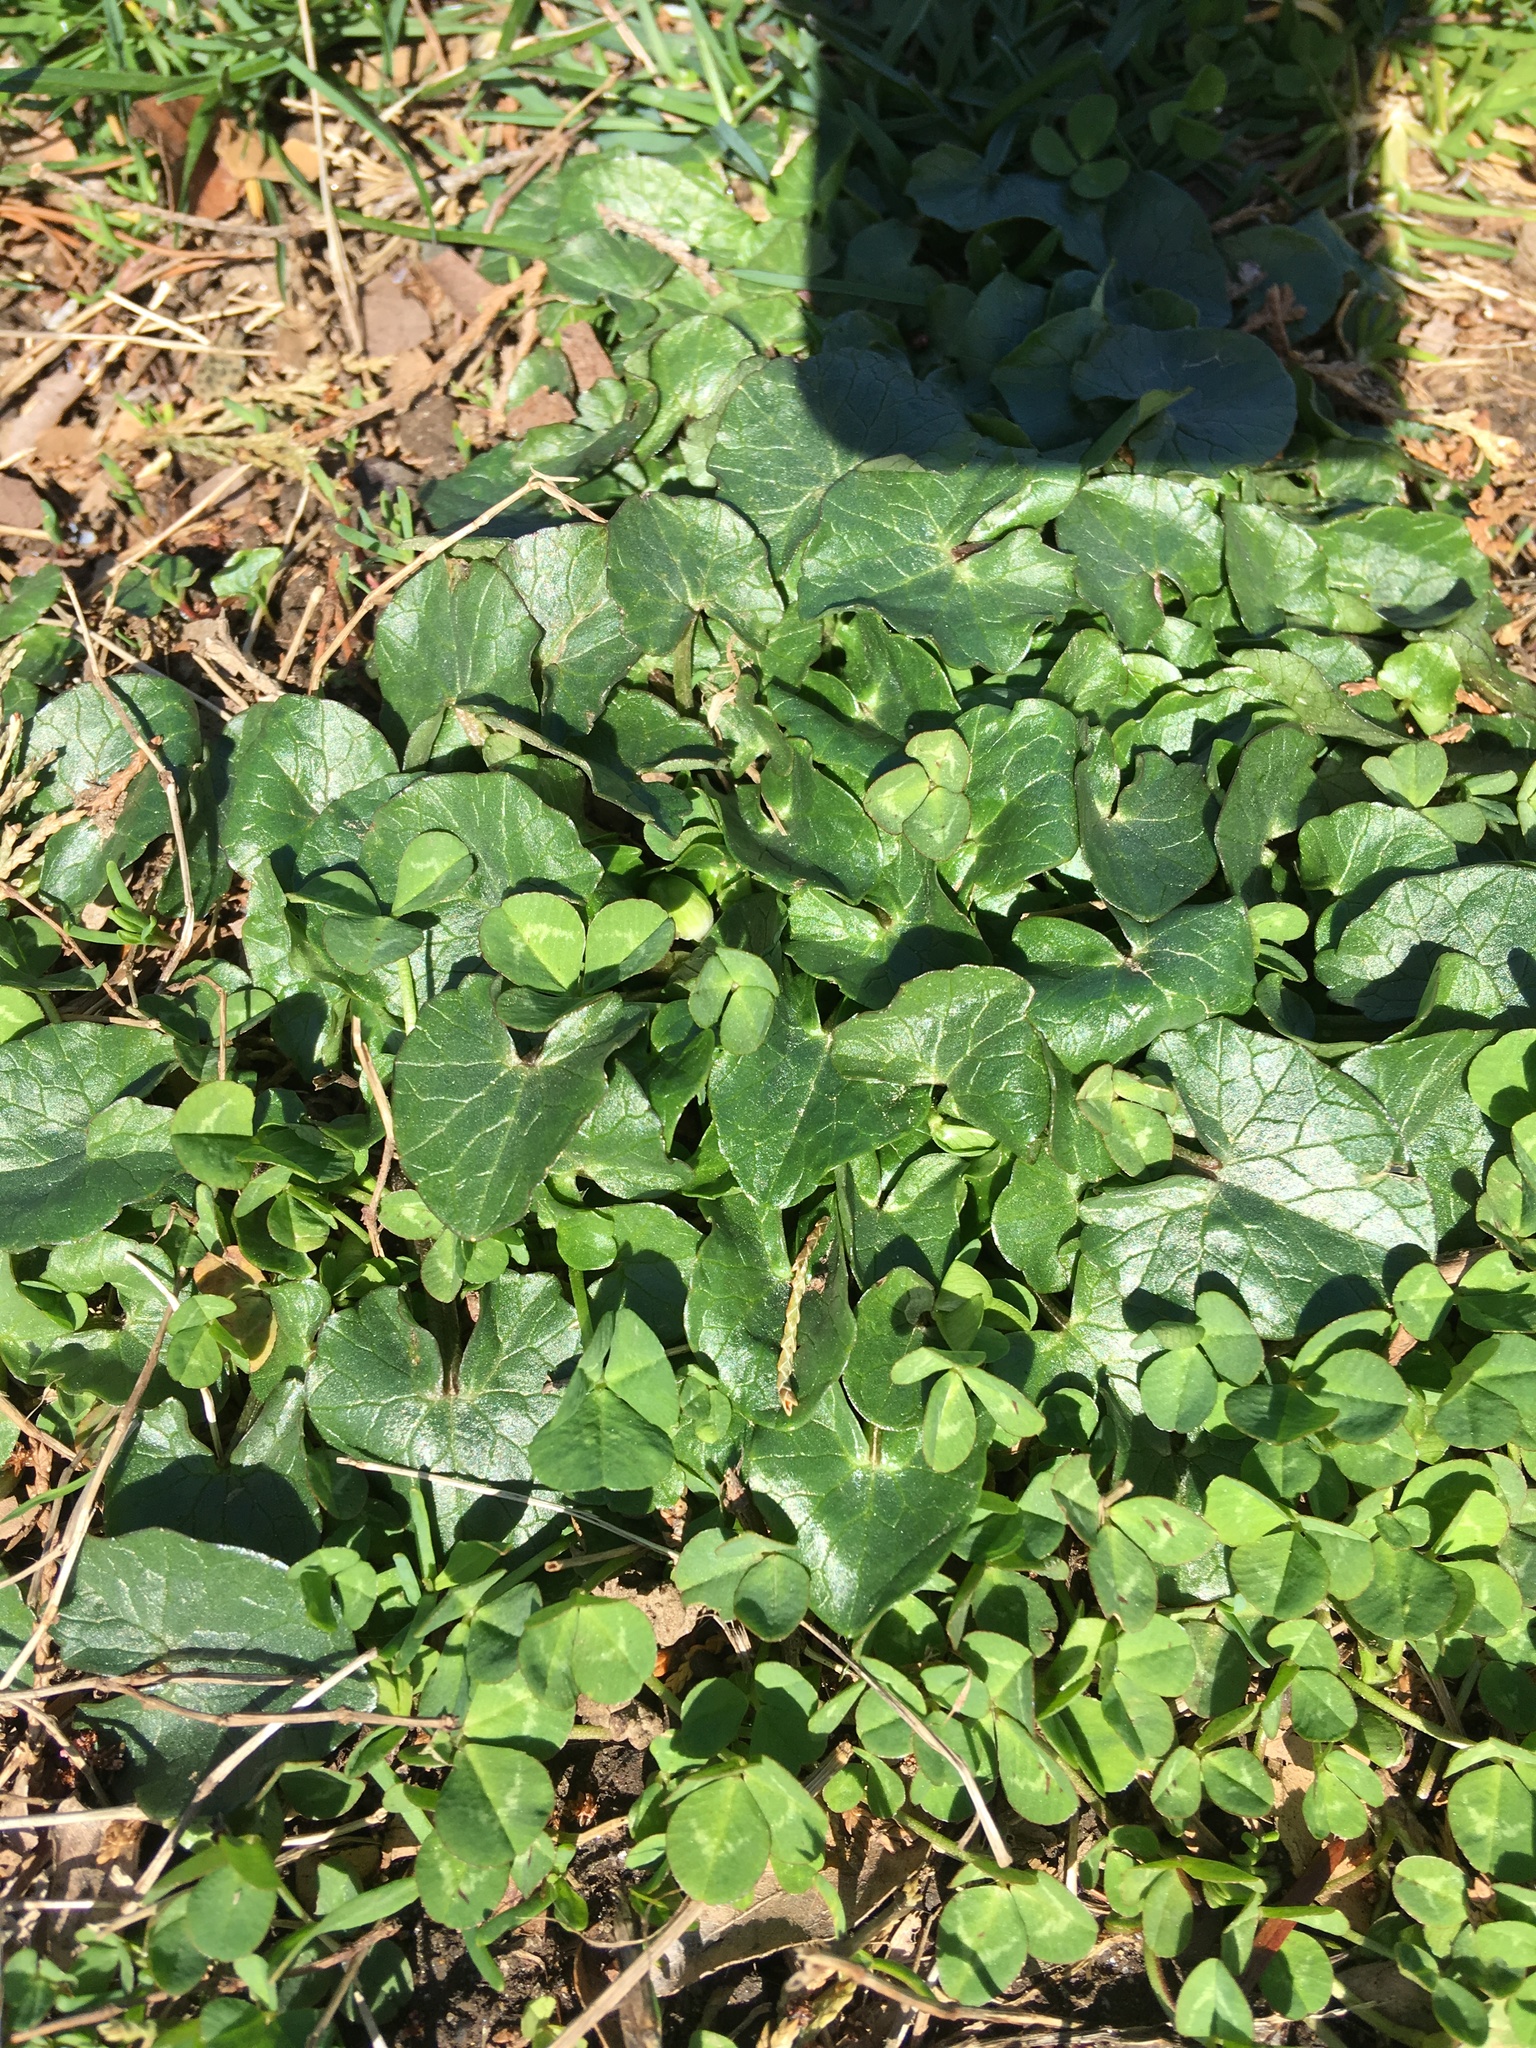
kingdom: Plantae
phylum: Tracheophyta
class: Magnoliopsida
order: Ranunculales
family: Ranunculaceae
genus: Ficaria
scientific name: Ficaria verna
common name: Lesser celandine
